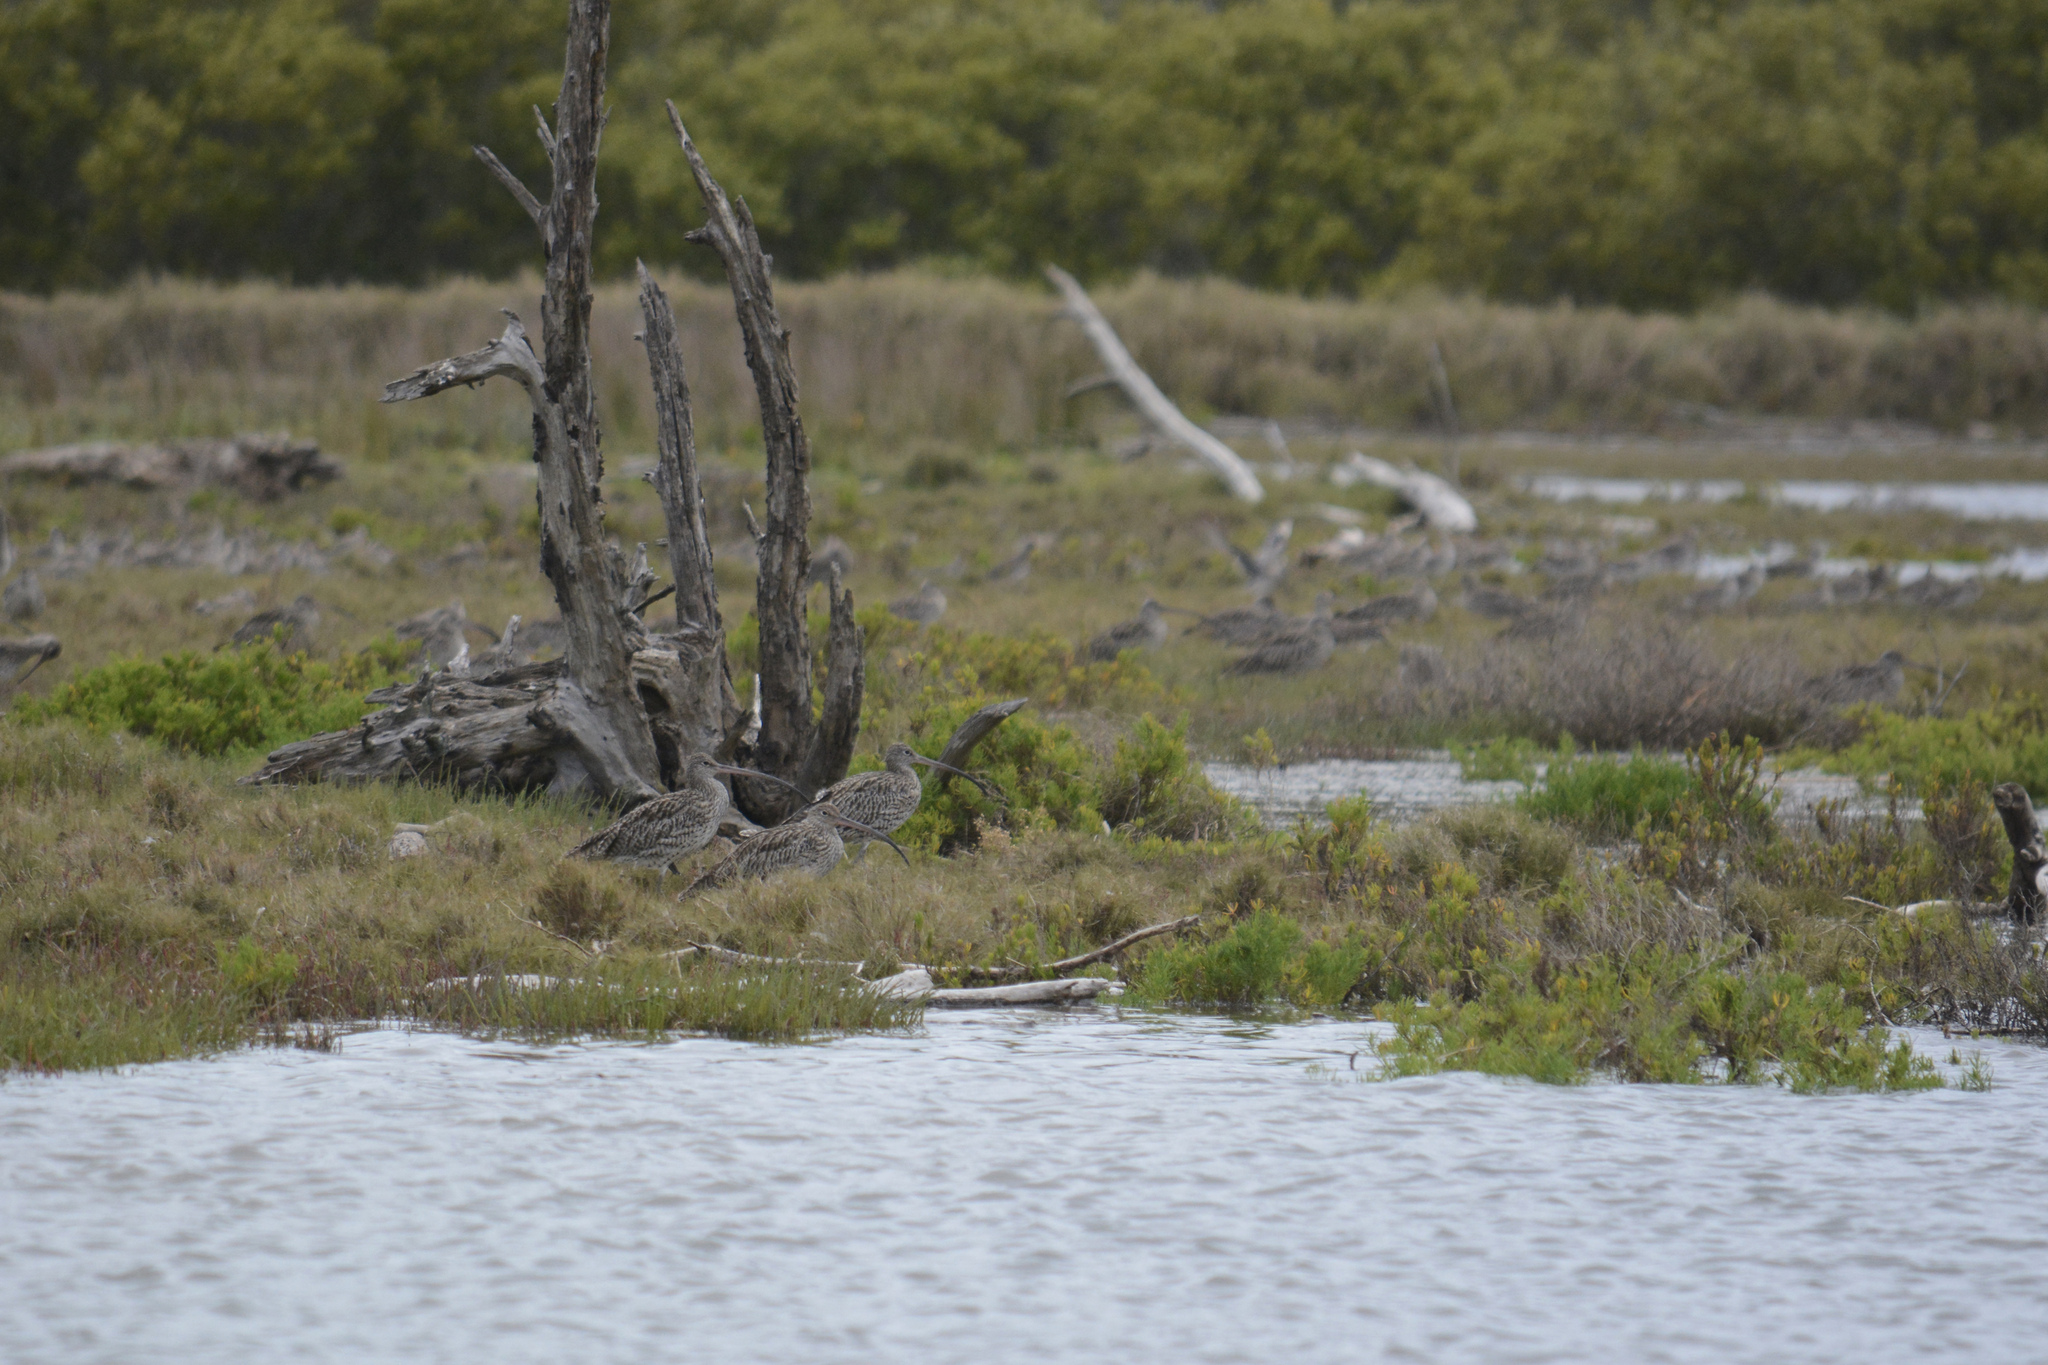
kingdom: Animalia
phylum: Chordata
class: Aves
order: Charadriiformes
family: Scolopacidae
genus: Numenius
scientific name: Numenius madagascariensis
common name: Far eastern curlew
